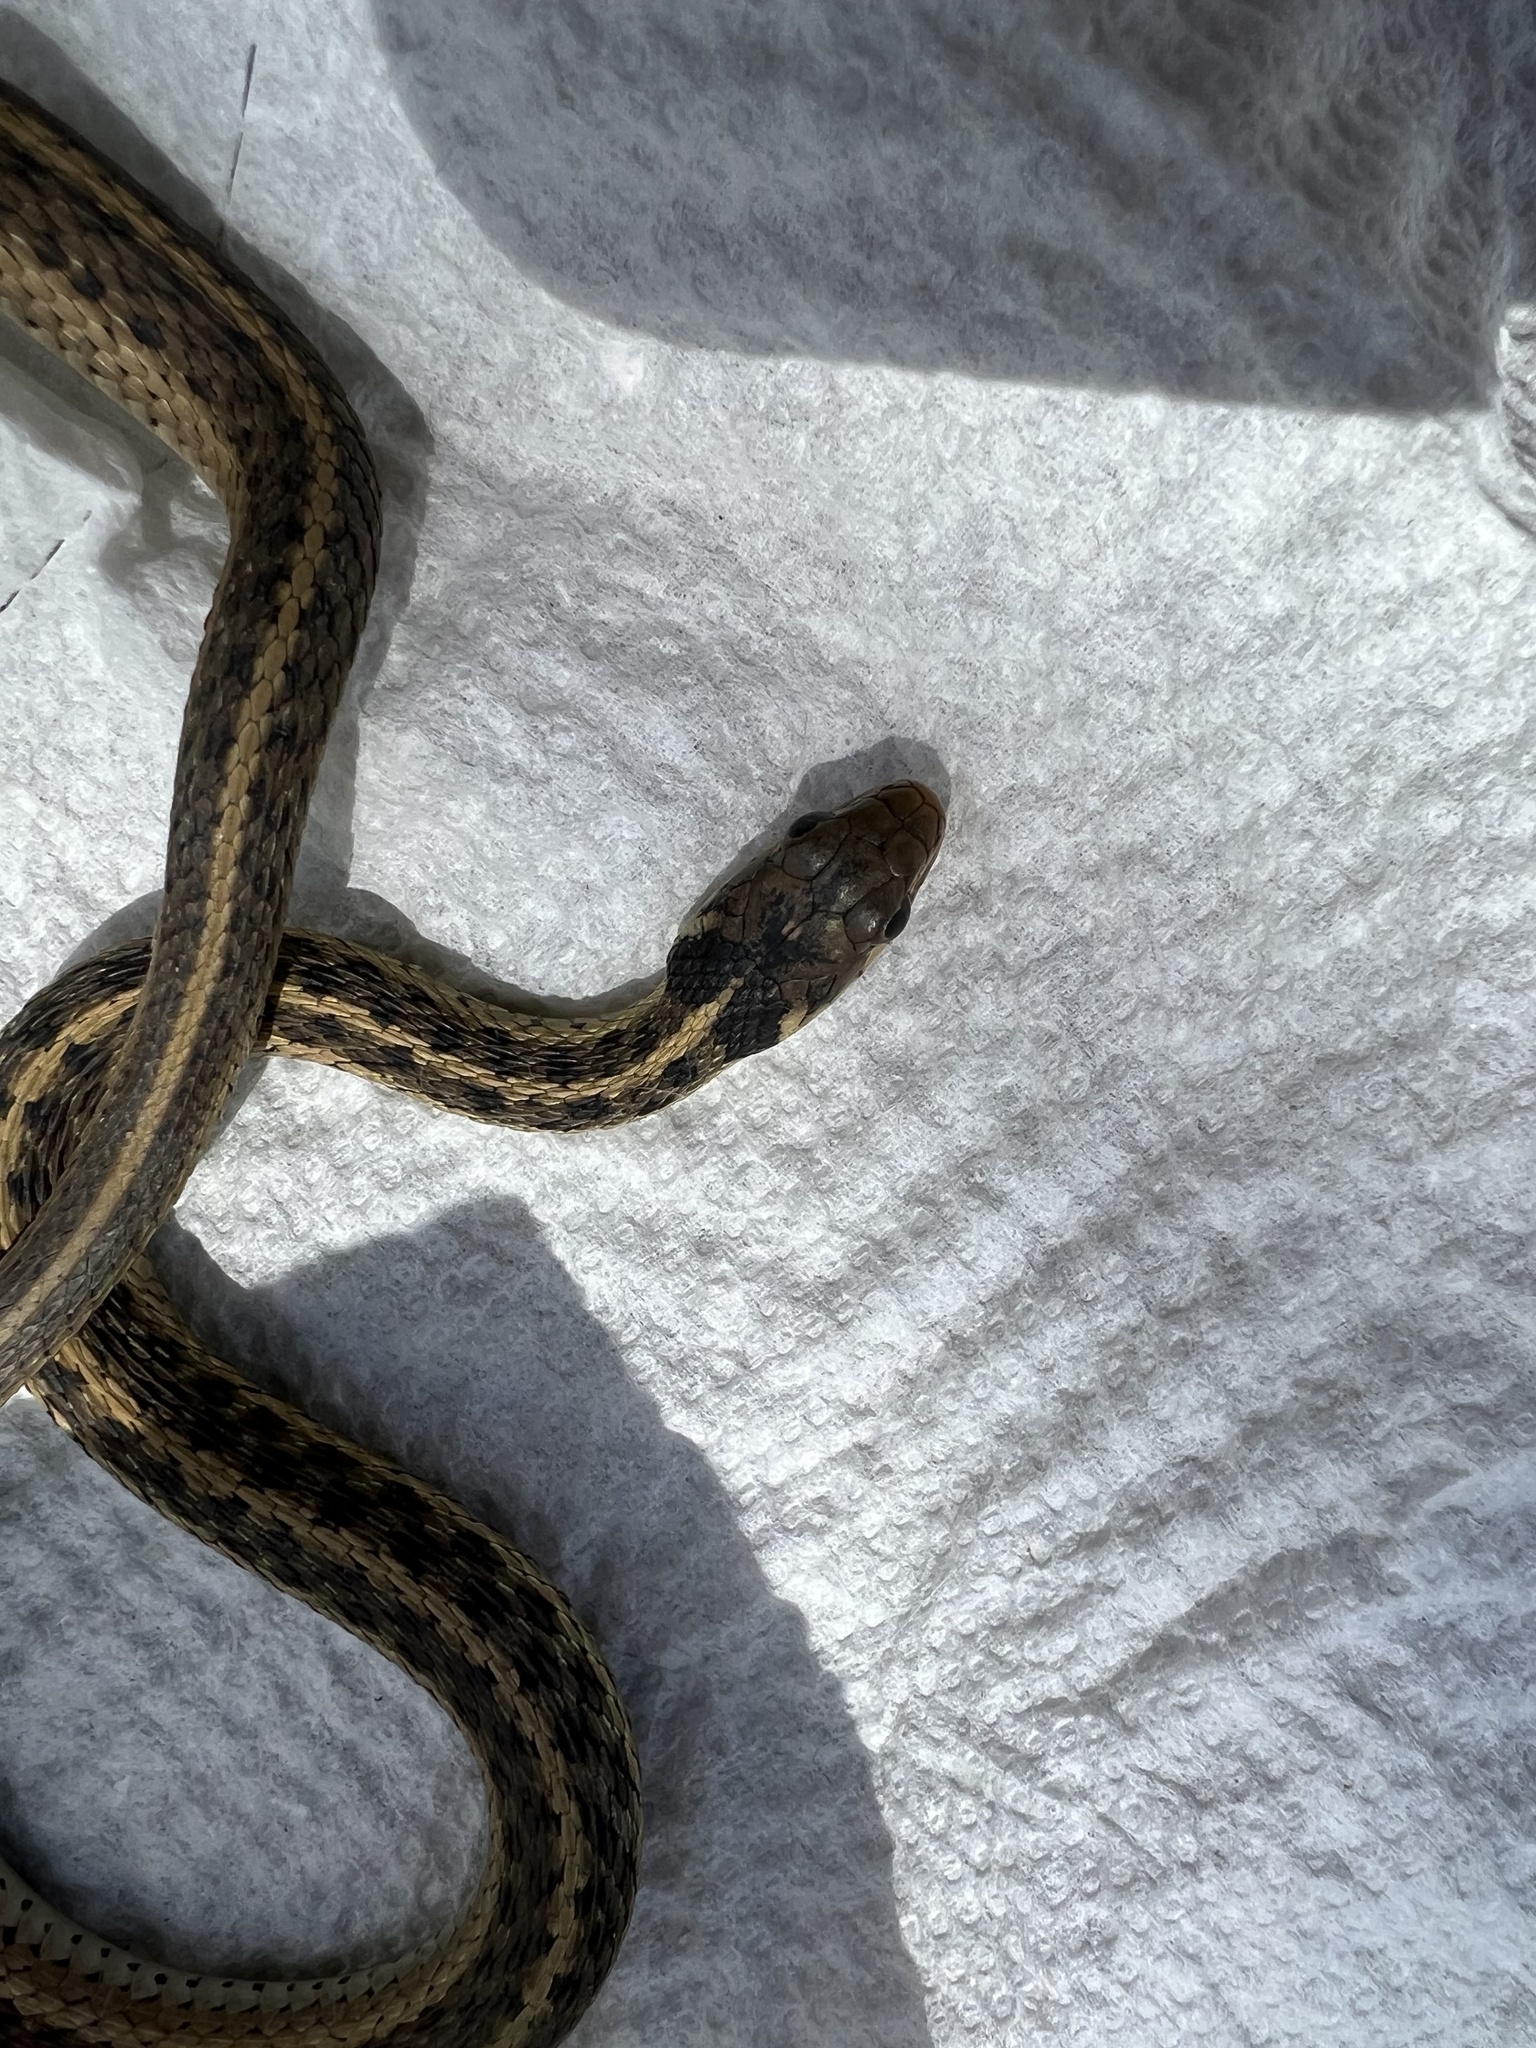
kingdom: Animalia
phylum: Chordata
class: Squamata
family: Colubridae
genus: Thamnophis
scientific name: Thamnophis sirtalis
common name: Common garter snake
